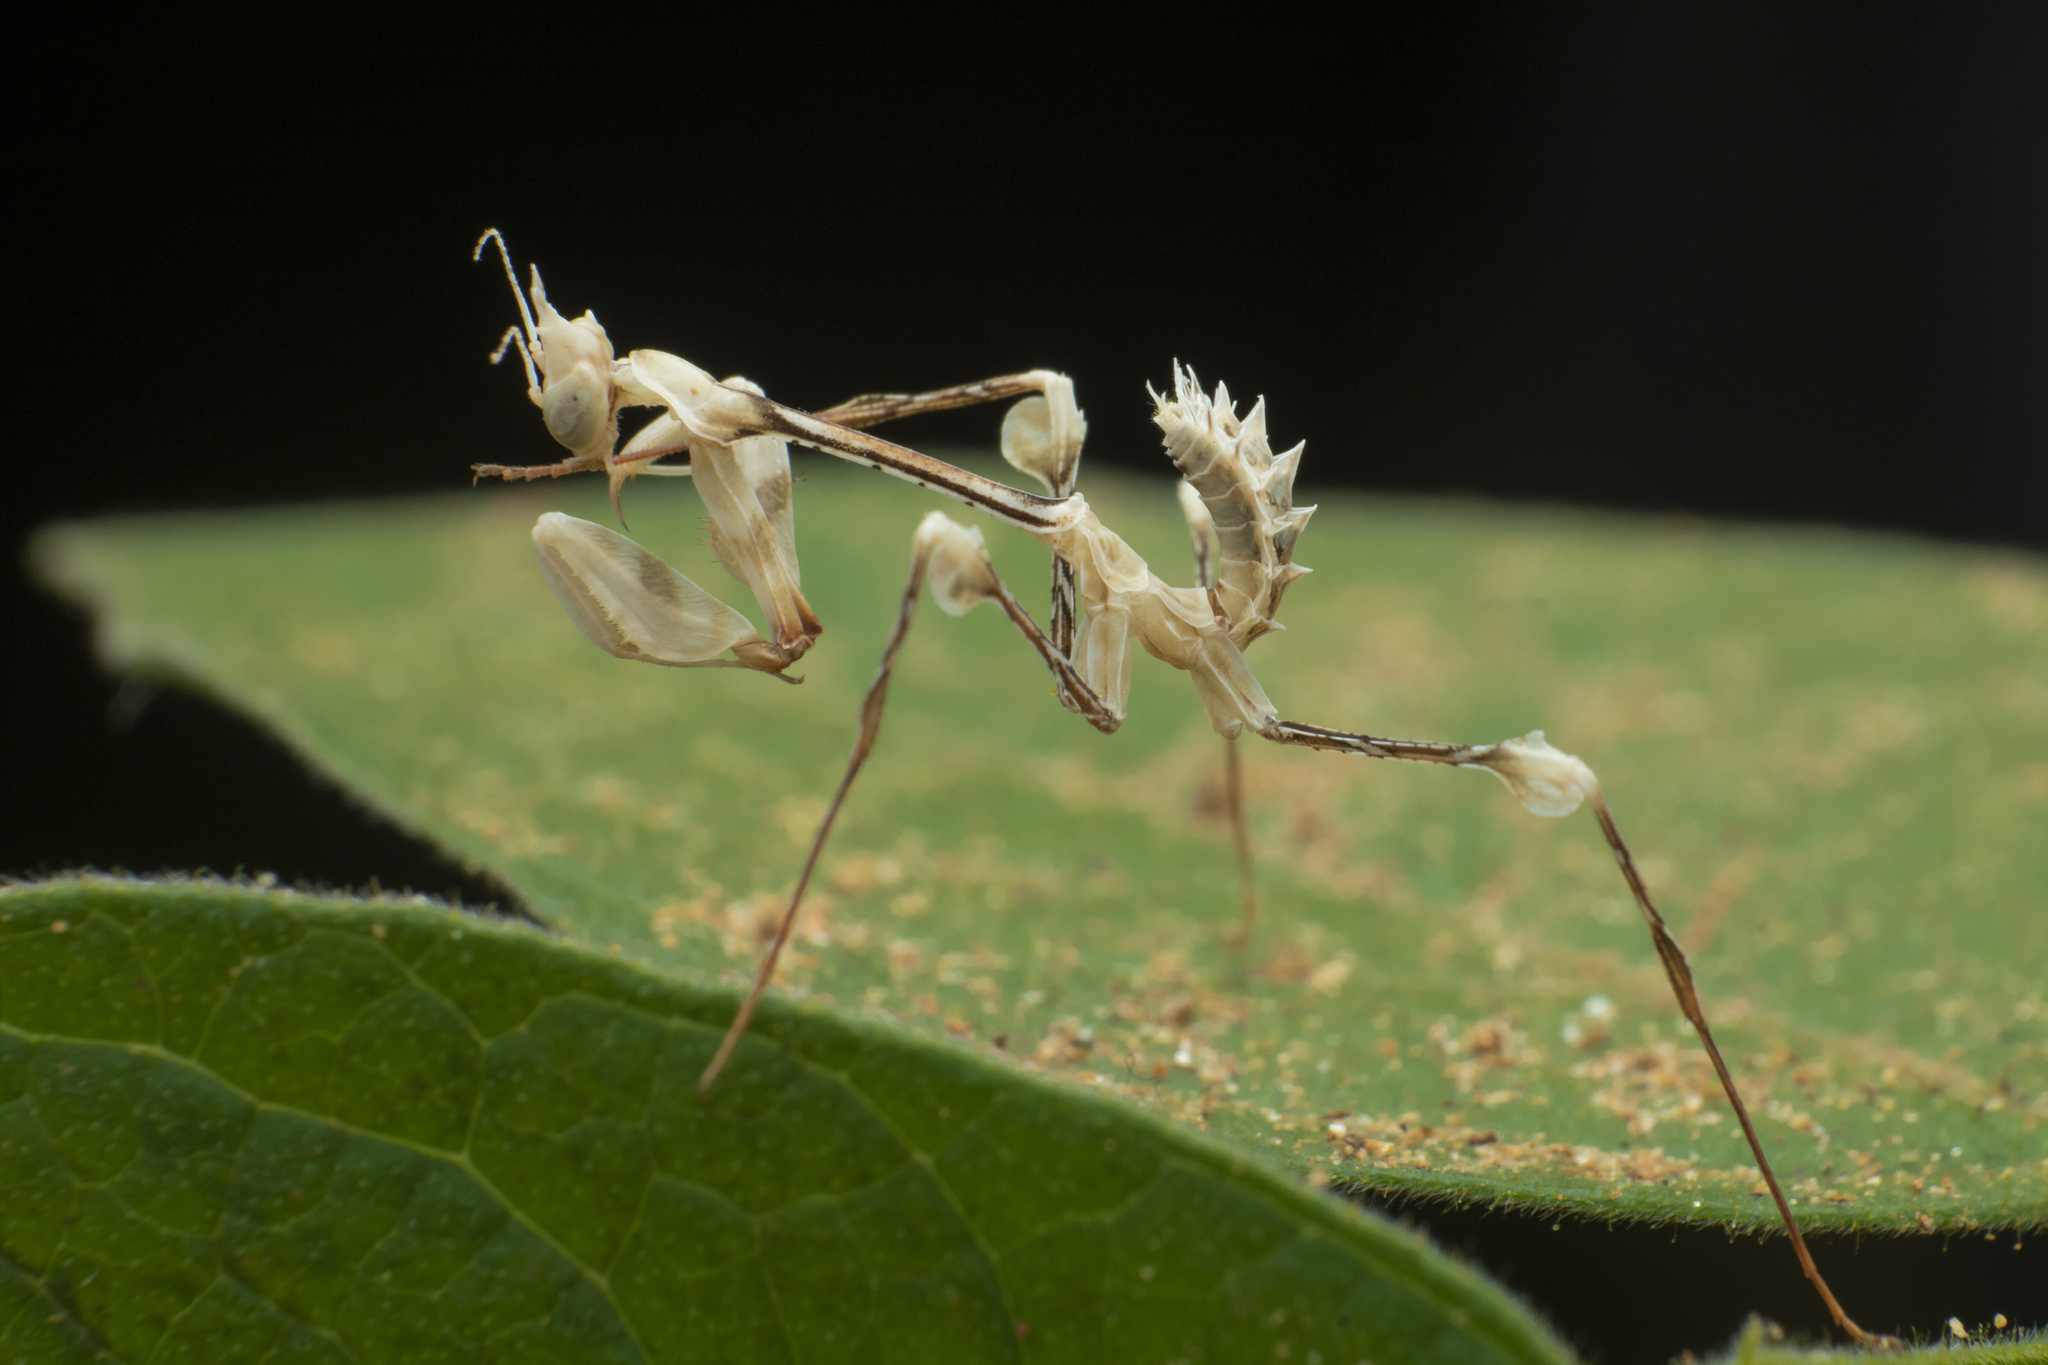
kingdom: Animalia
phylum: Arthropoda
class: Insecta
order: Mantodea
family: Empusidae
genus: Gongylus
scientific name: Gongylus gongylodes
